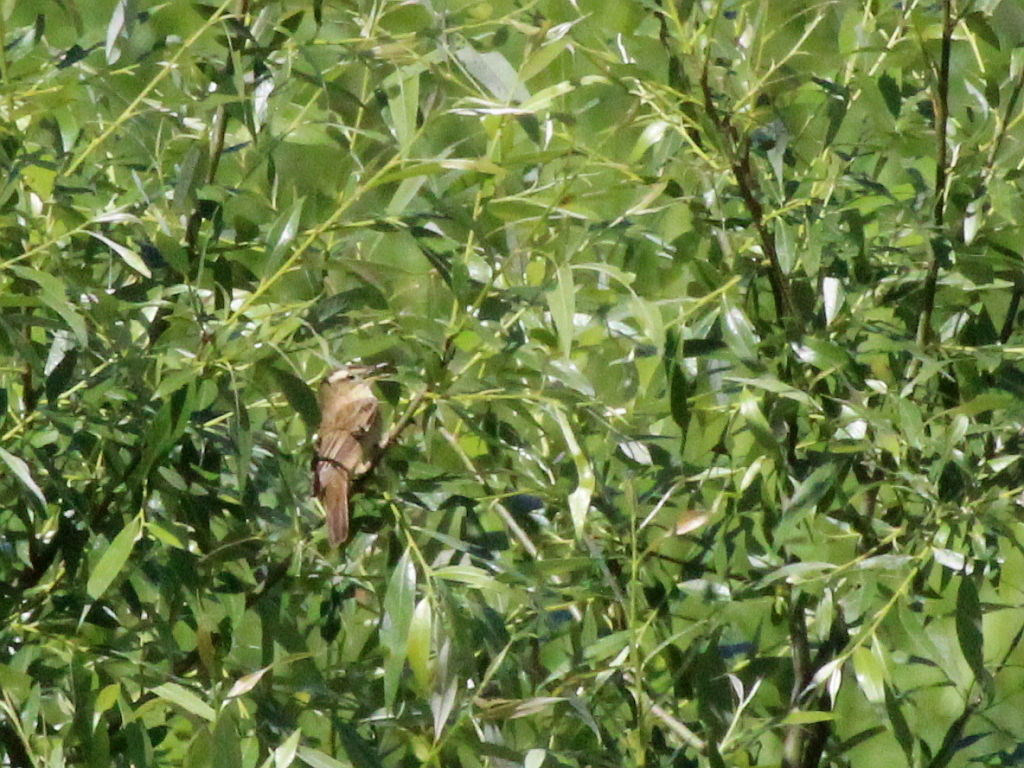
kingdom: Animalia
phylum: Chordata
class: Aves
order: Passeriformes
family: Acrocephalidae
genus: Acrocephalus
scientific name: Acrocephalus schoenobaenus
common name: Sedge warbler
